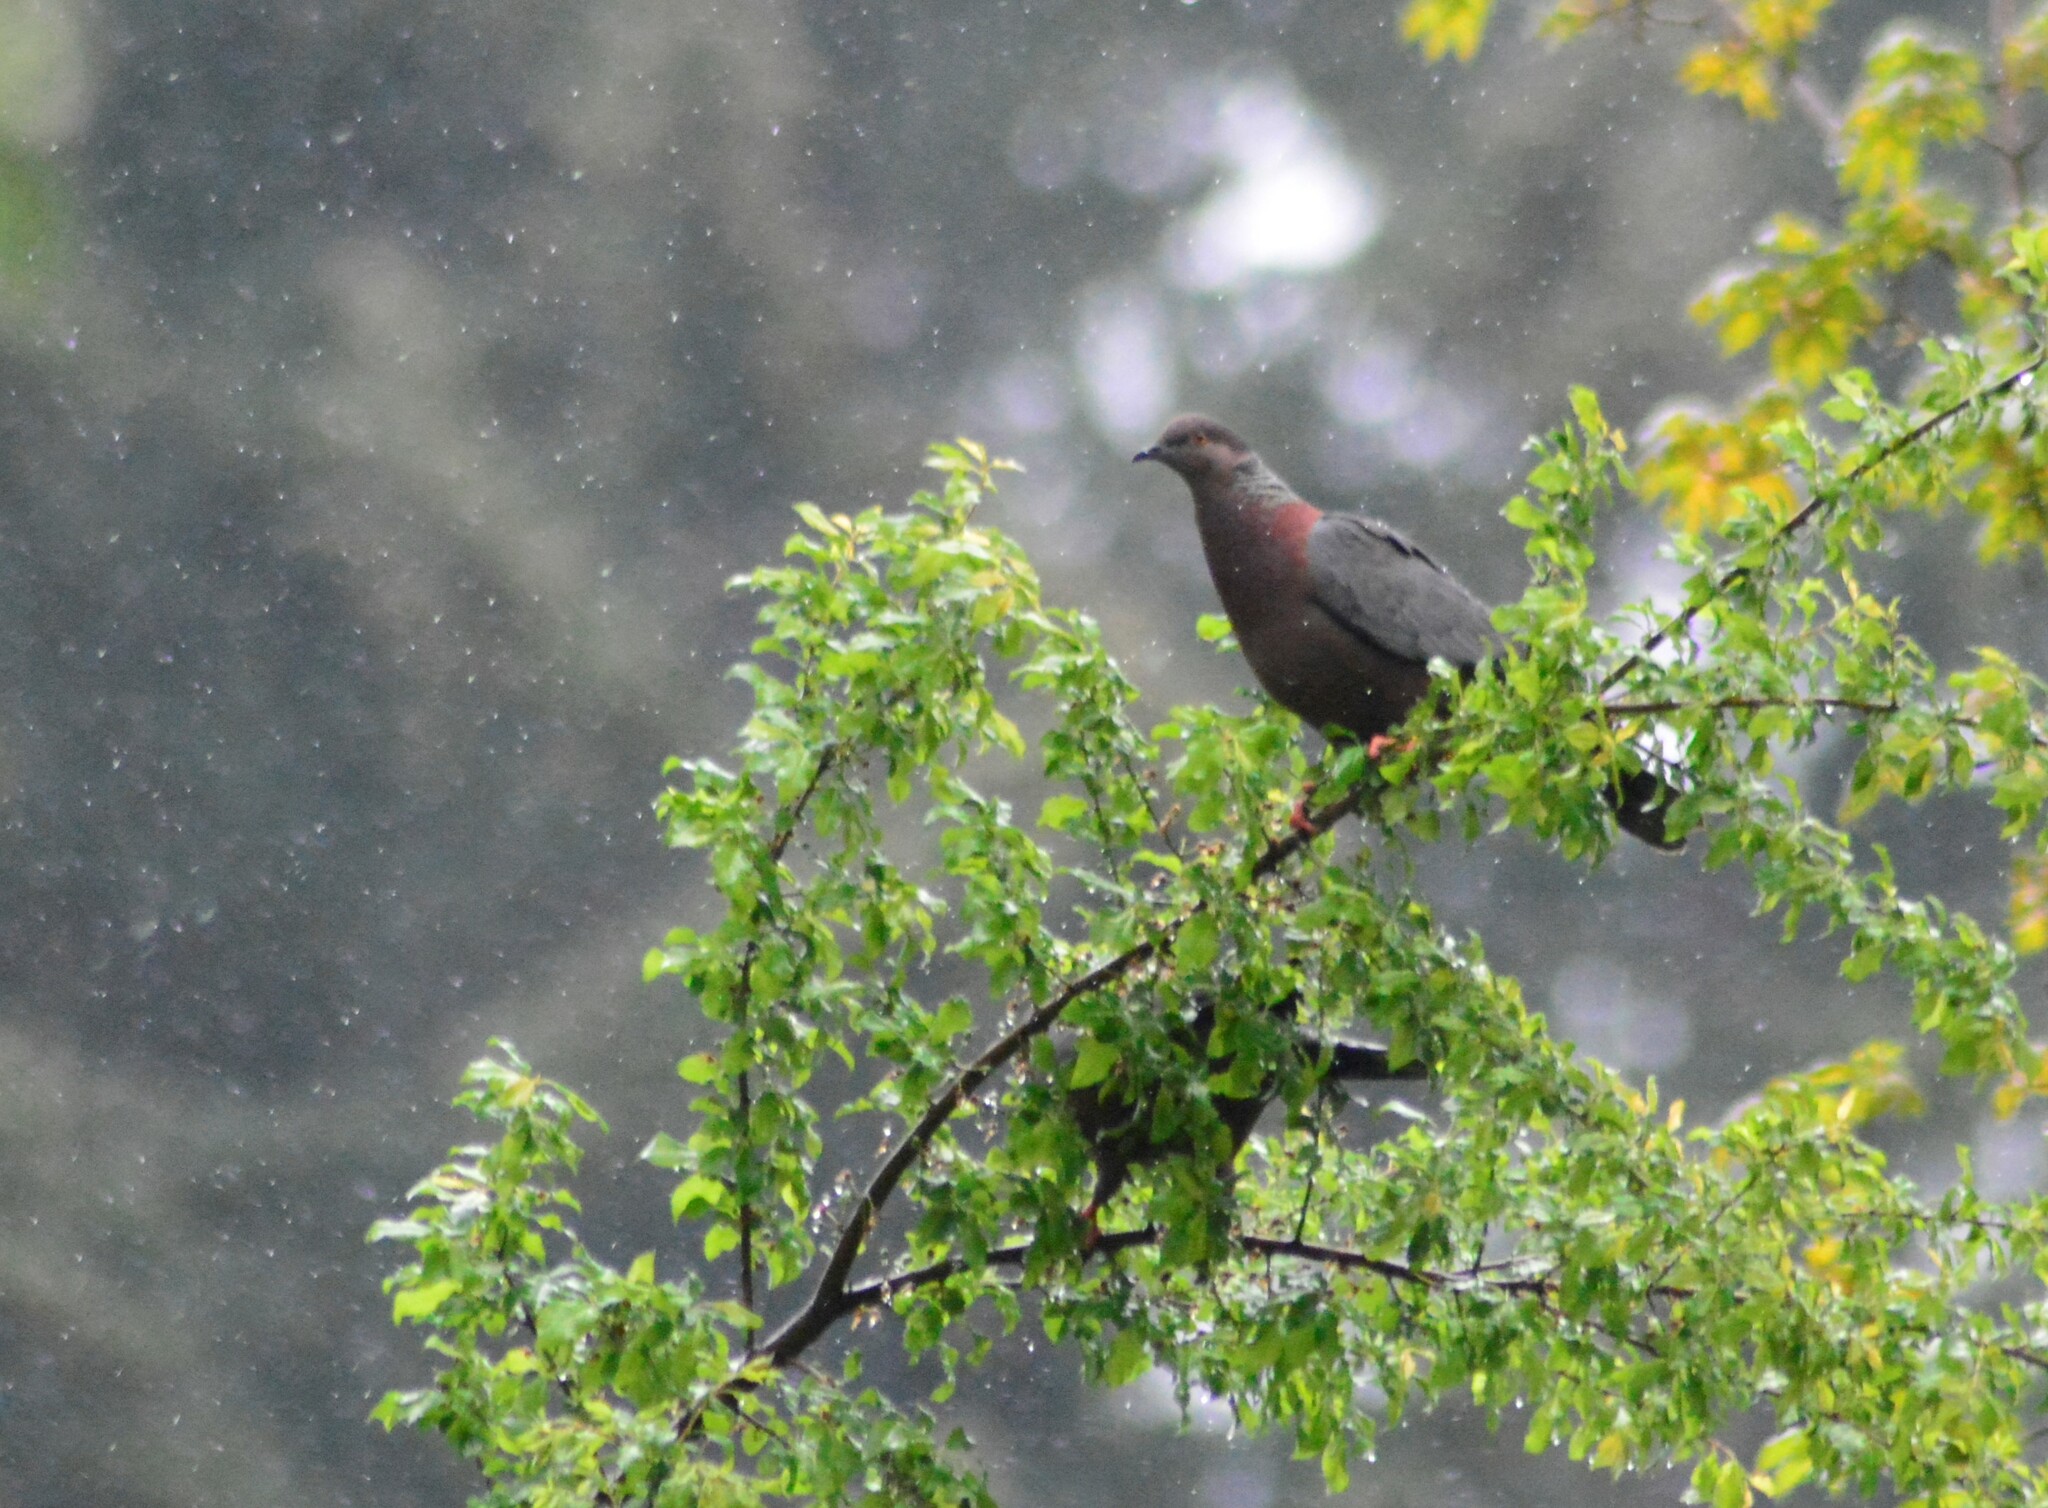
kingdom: Animalia
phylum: Chordata
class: Aves
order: Columbiformes
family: Columbidae
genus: Patagioenas
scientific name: Patagioenas araucana
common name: Chilean pigeon
